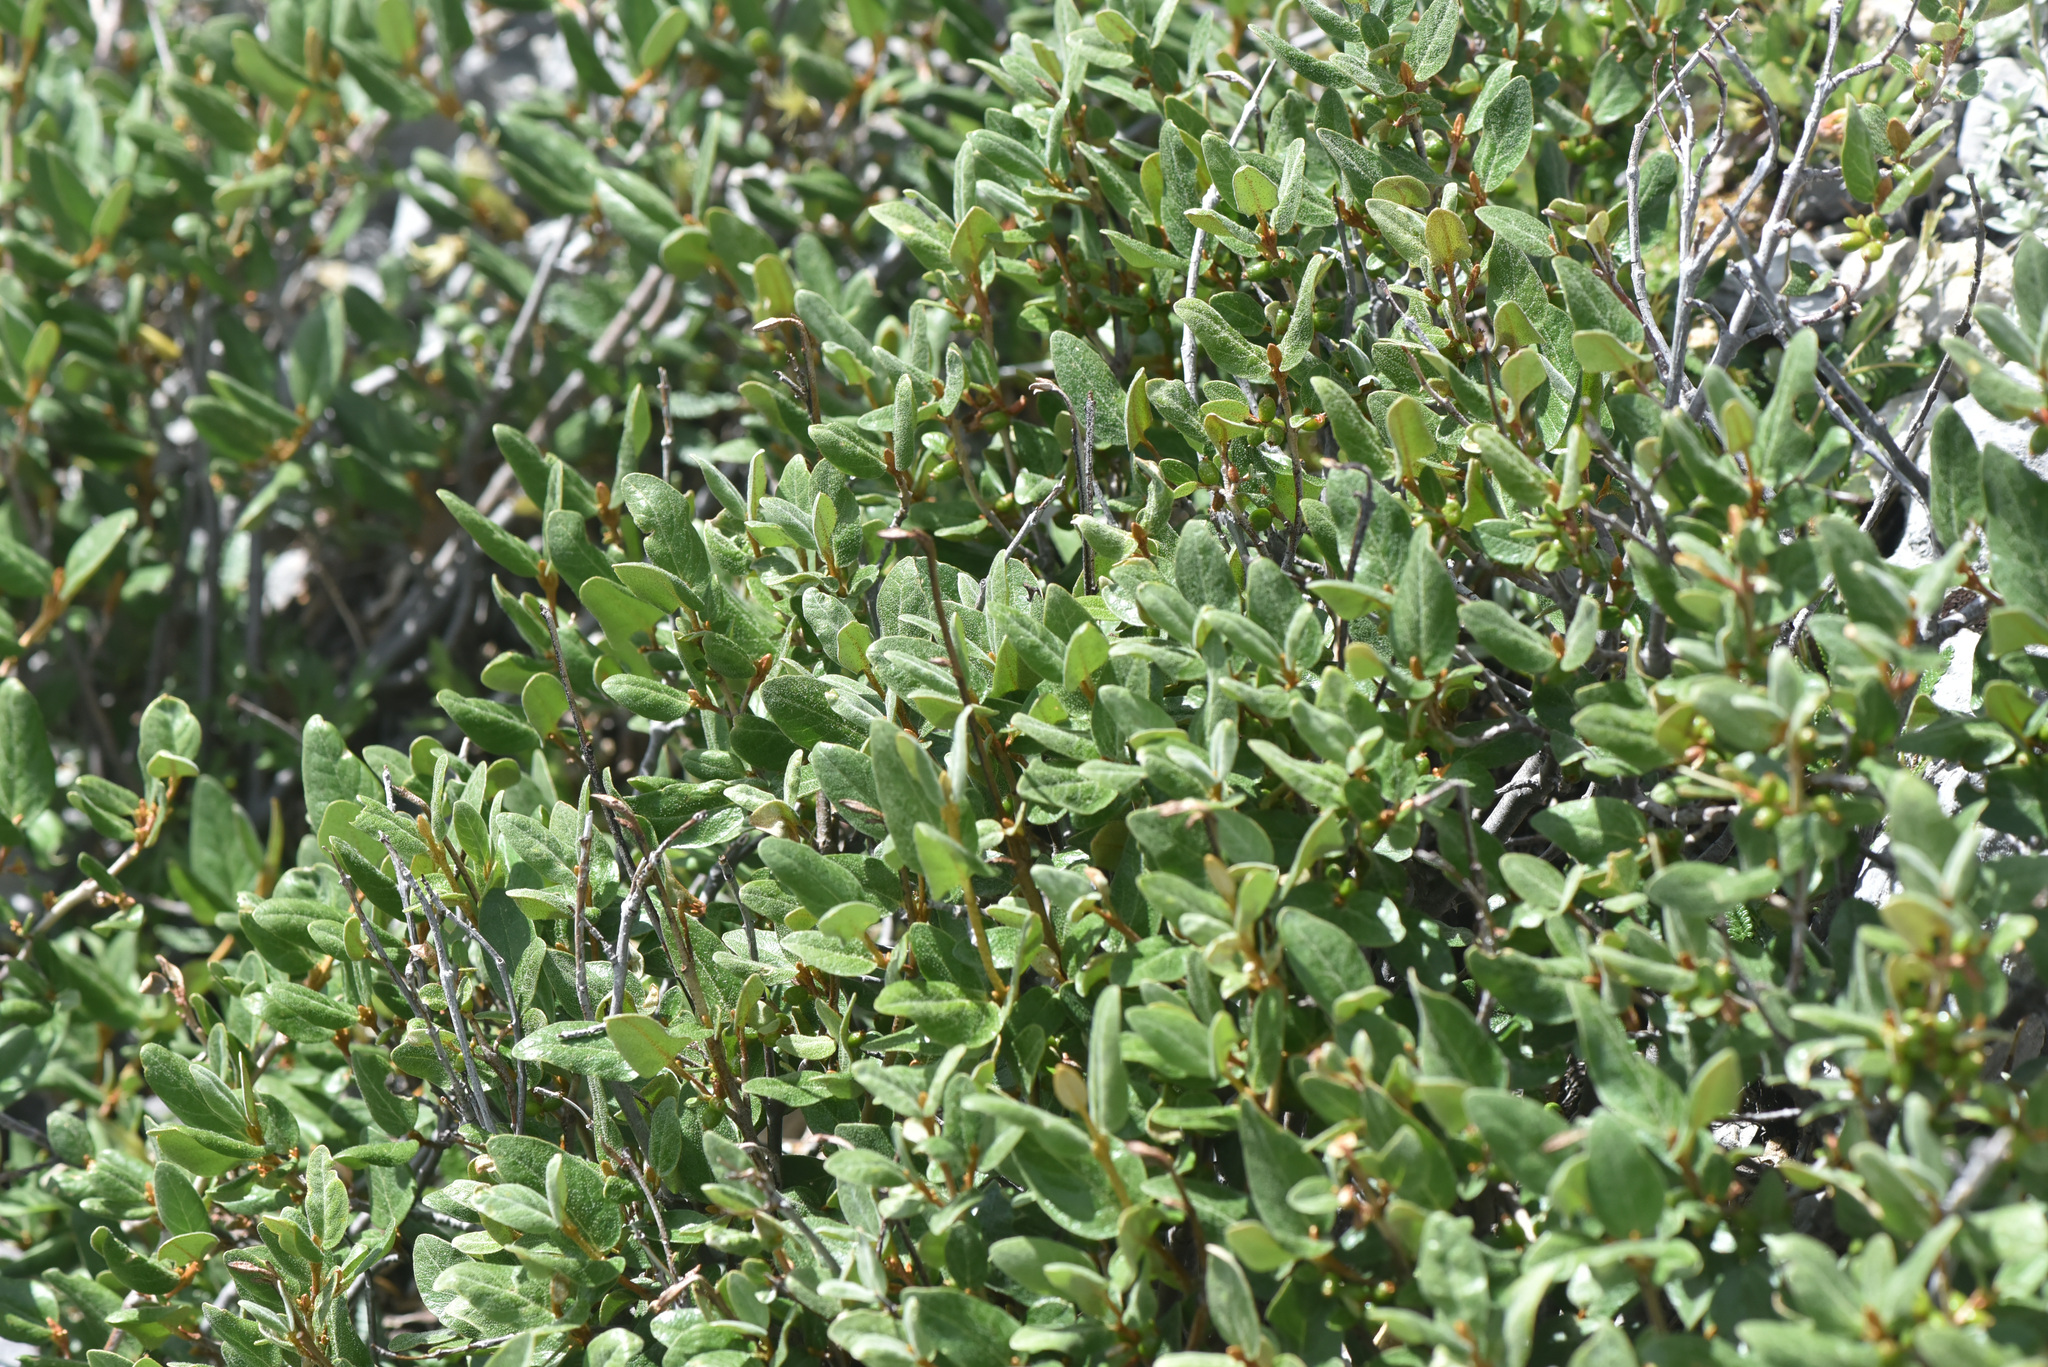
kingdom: Plantae
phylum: Tracheophyta
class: Magnoliopsida
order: Rosales
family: Elaeagnaceae
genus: Shepherdia
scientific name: Shepherdia canadensis
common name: Soapberry
